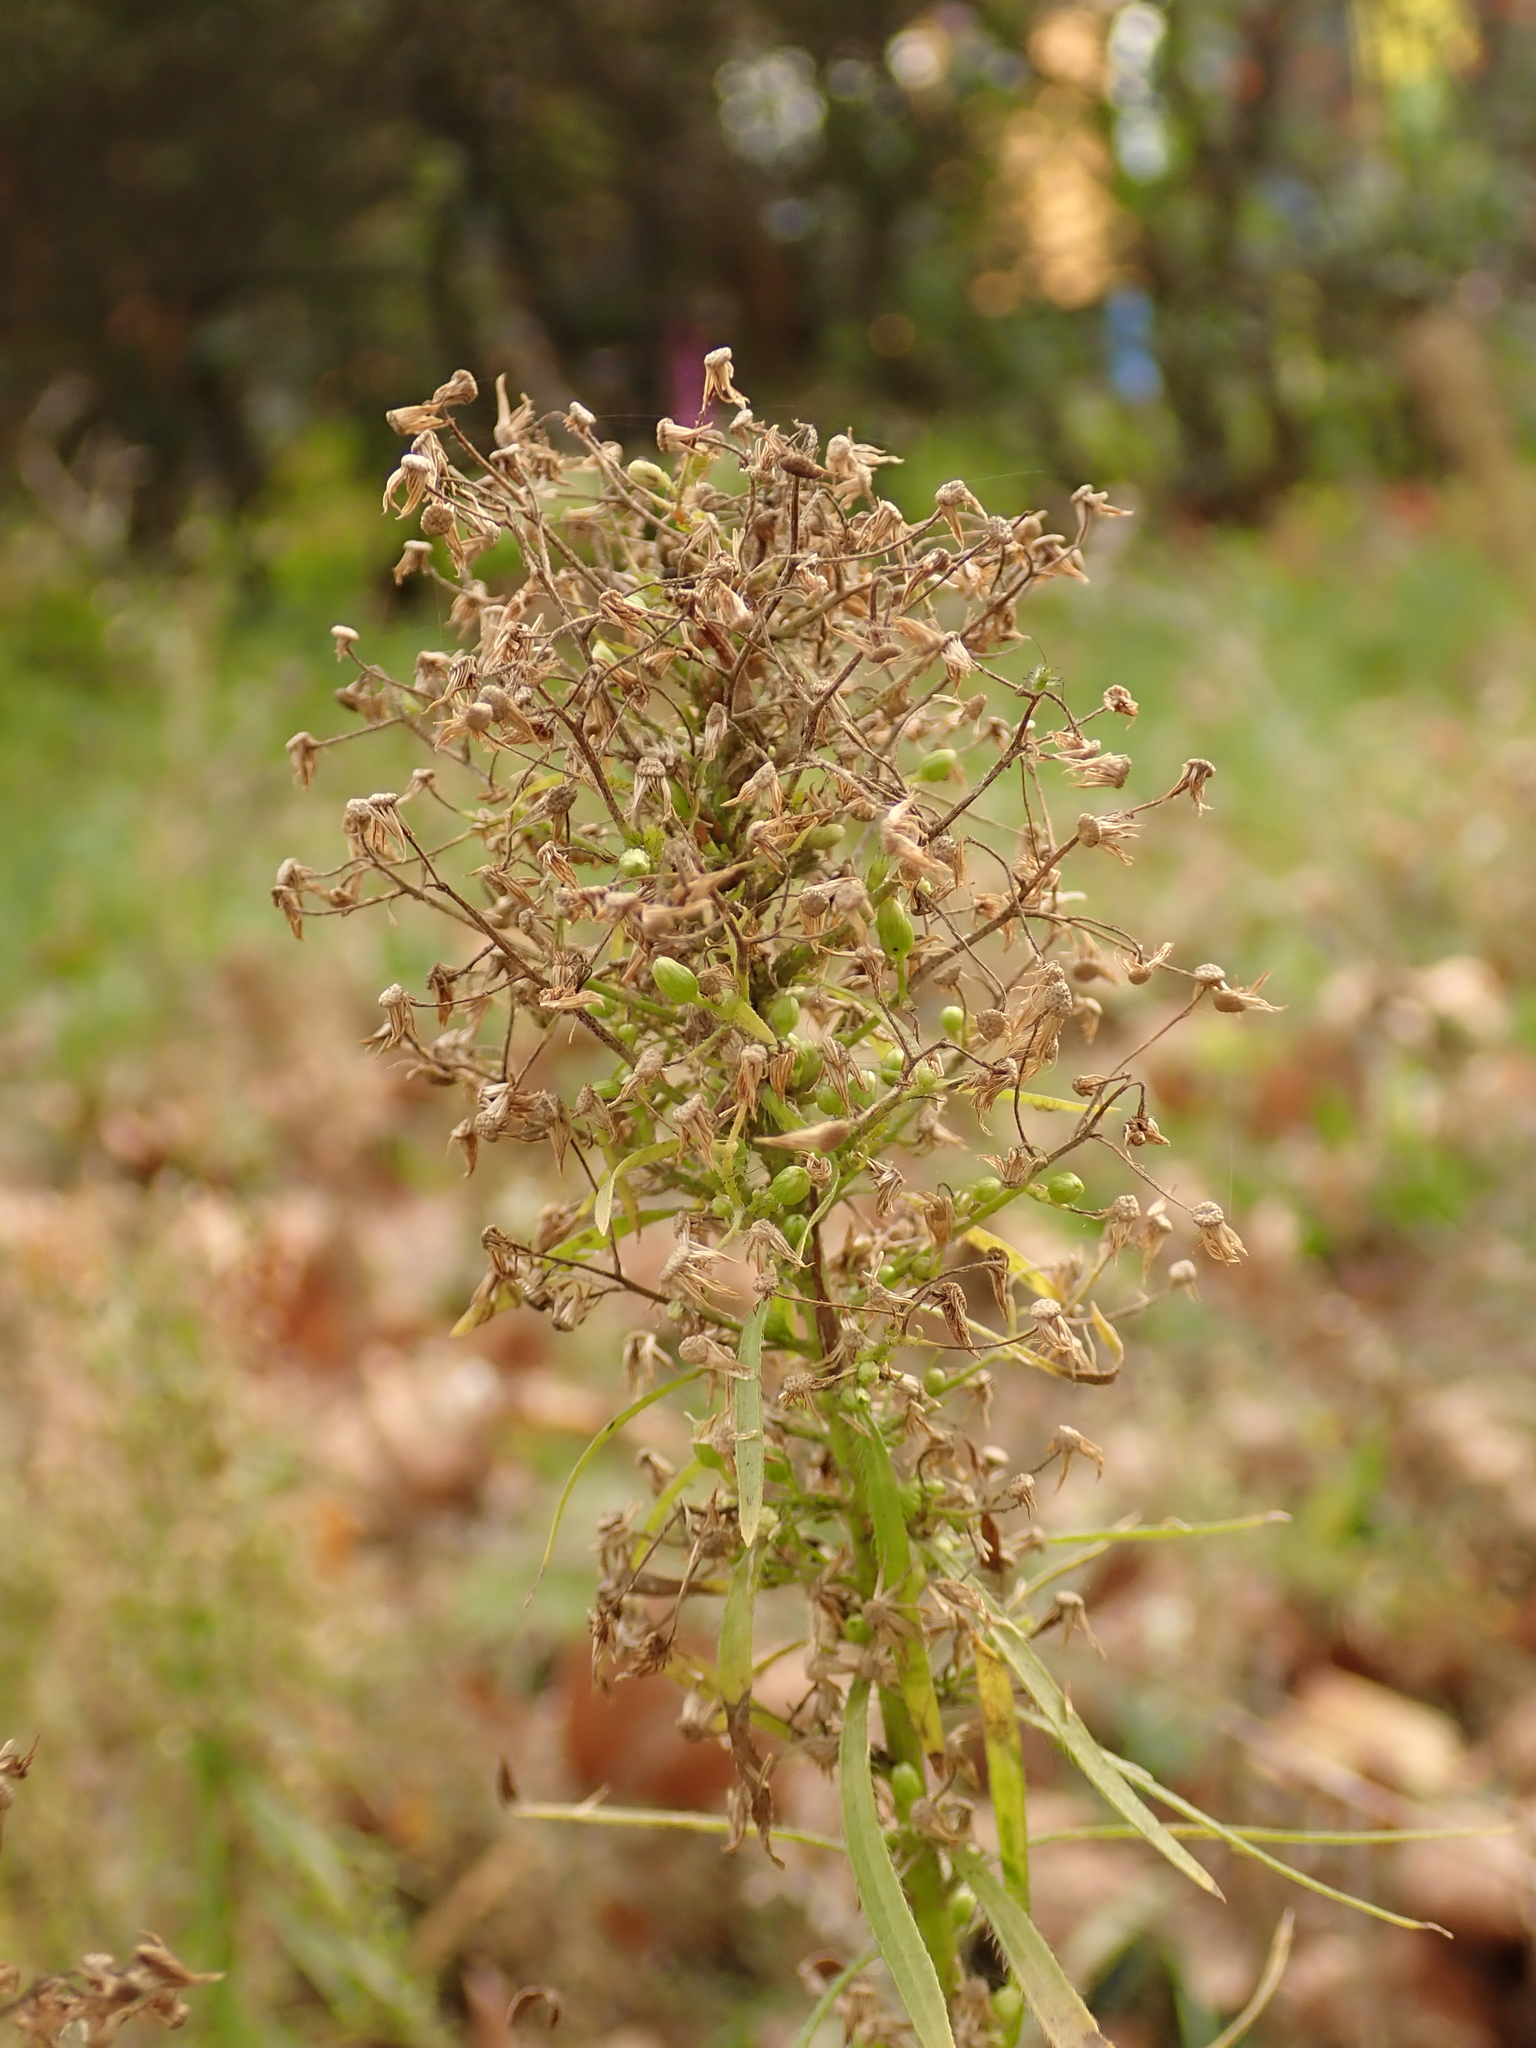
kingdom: Plantae
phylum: Tracheophyta
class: Magnoliopsida
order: Asterales
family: Asteraceae
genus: Erigeron
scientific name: Erigeron canadensis
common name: Canadian fleabane
